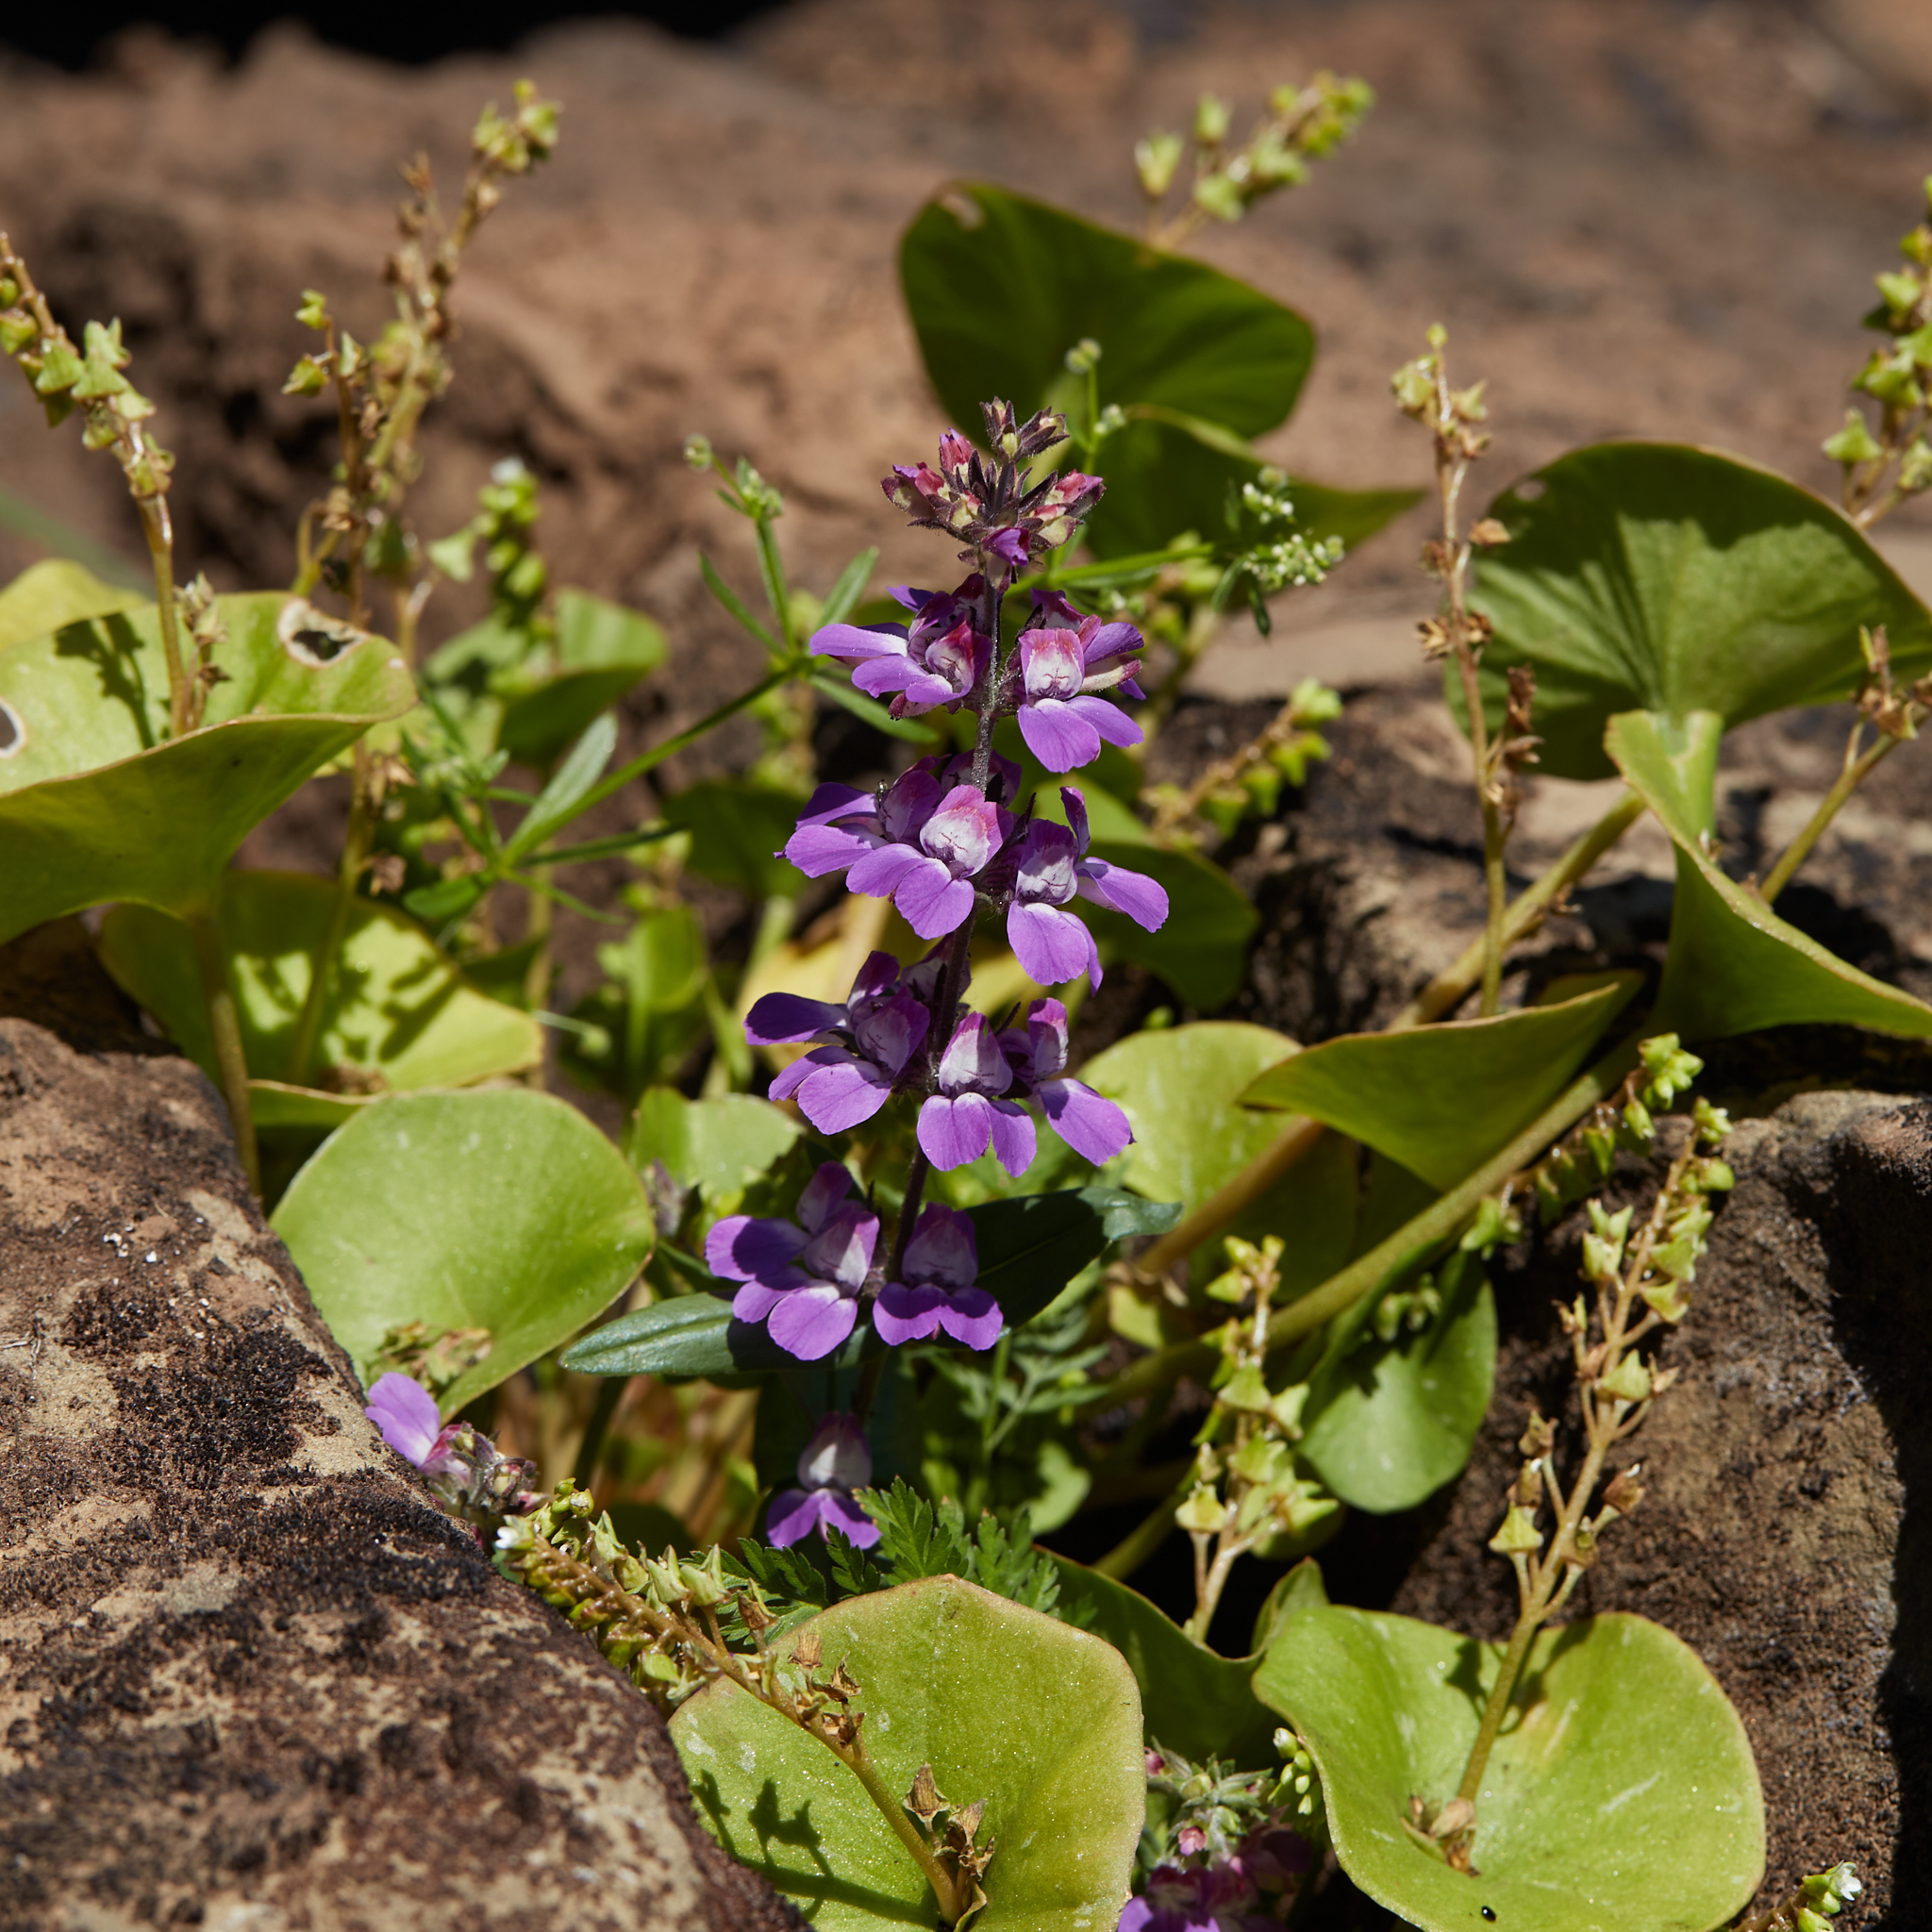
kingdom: Plantae
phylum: Tracheophyta
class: Magnoliopsida
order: Lamiales
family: Plantaginaceae
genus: Collinsia
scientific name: Collinsia heterophylla
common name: Chinese-houses
